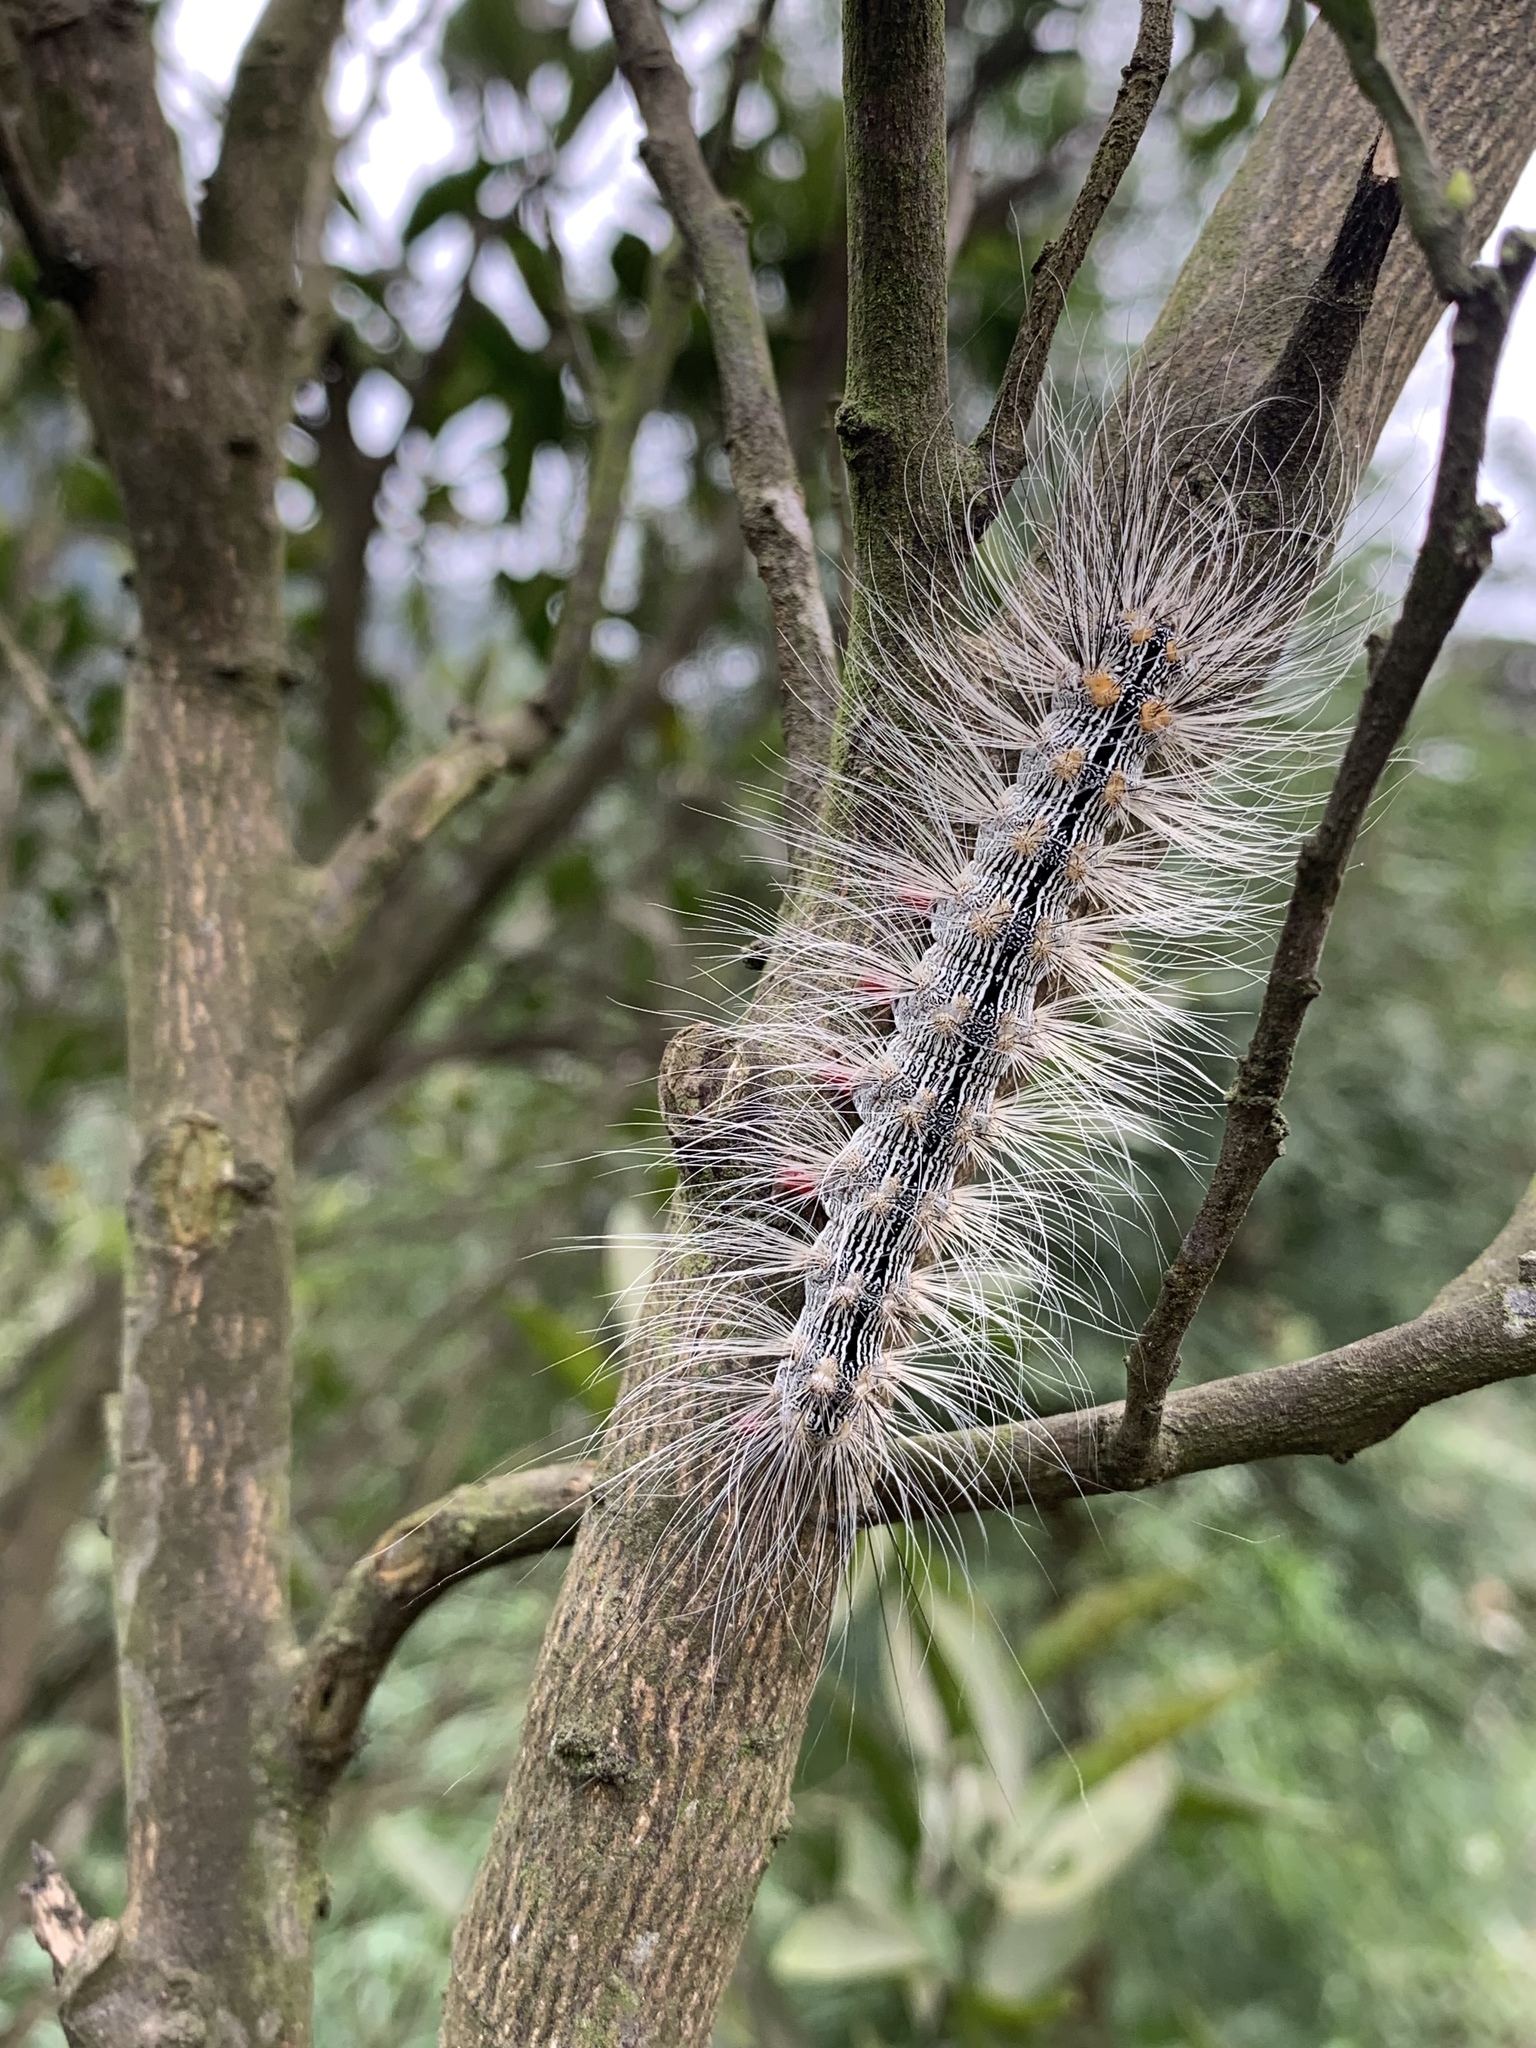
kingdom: Animalia
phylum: Arthropoda
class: Insecta
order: Lepidoptera
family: Erebidae
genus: Chrysaeglia
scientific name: Chrysaeglia magnifica
